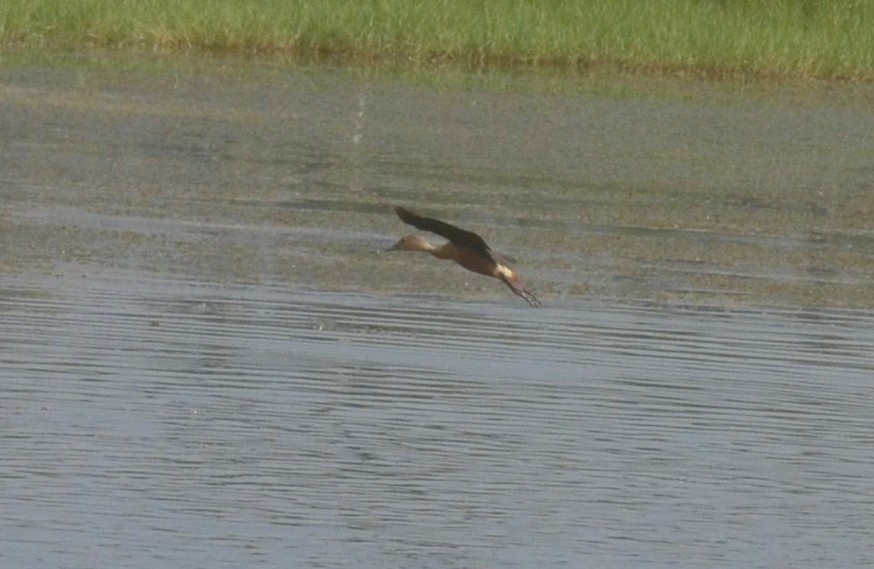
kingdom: Animalia
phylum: Chordata
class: Aves
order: Anseriformes
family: Anatidae
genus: Dendrocygna
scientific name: Dendrocygna javanica
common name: Lesser whistling-duck
